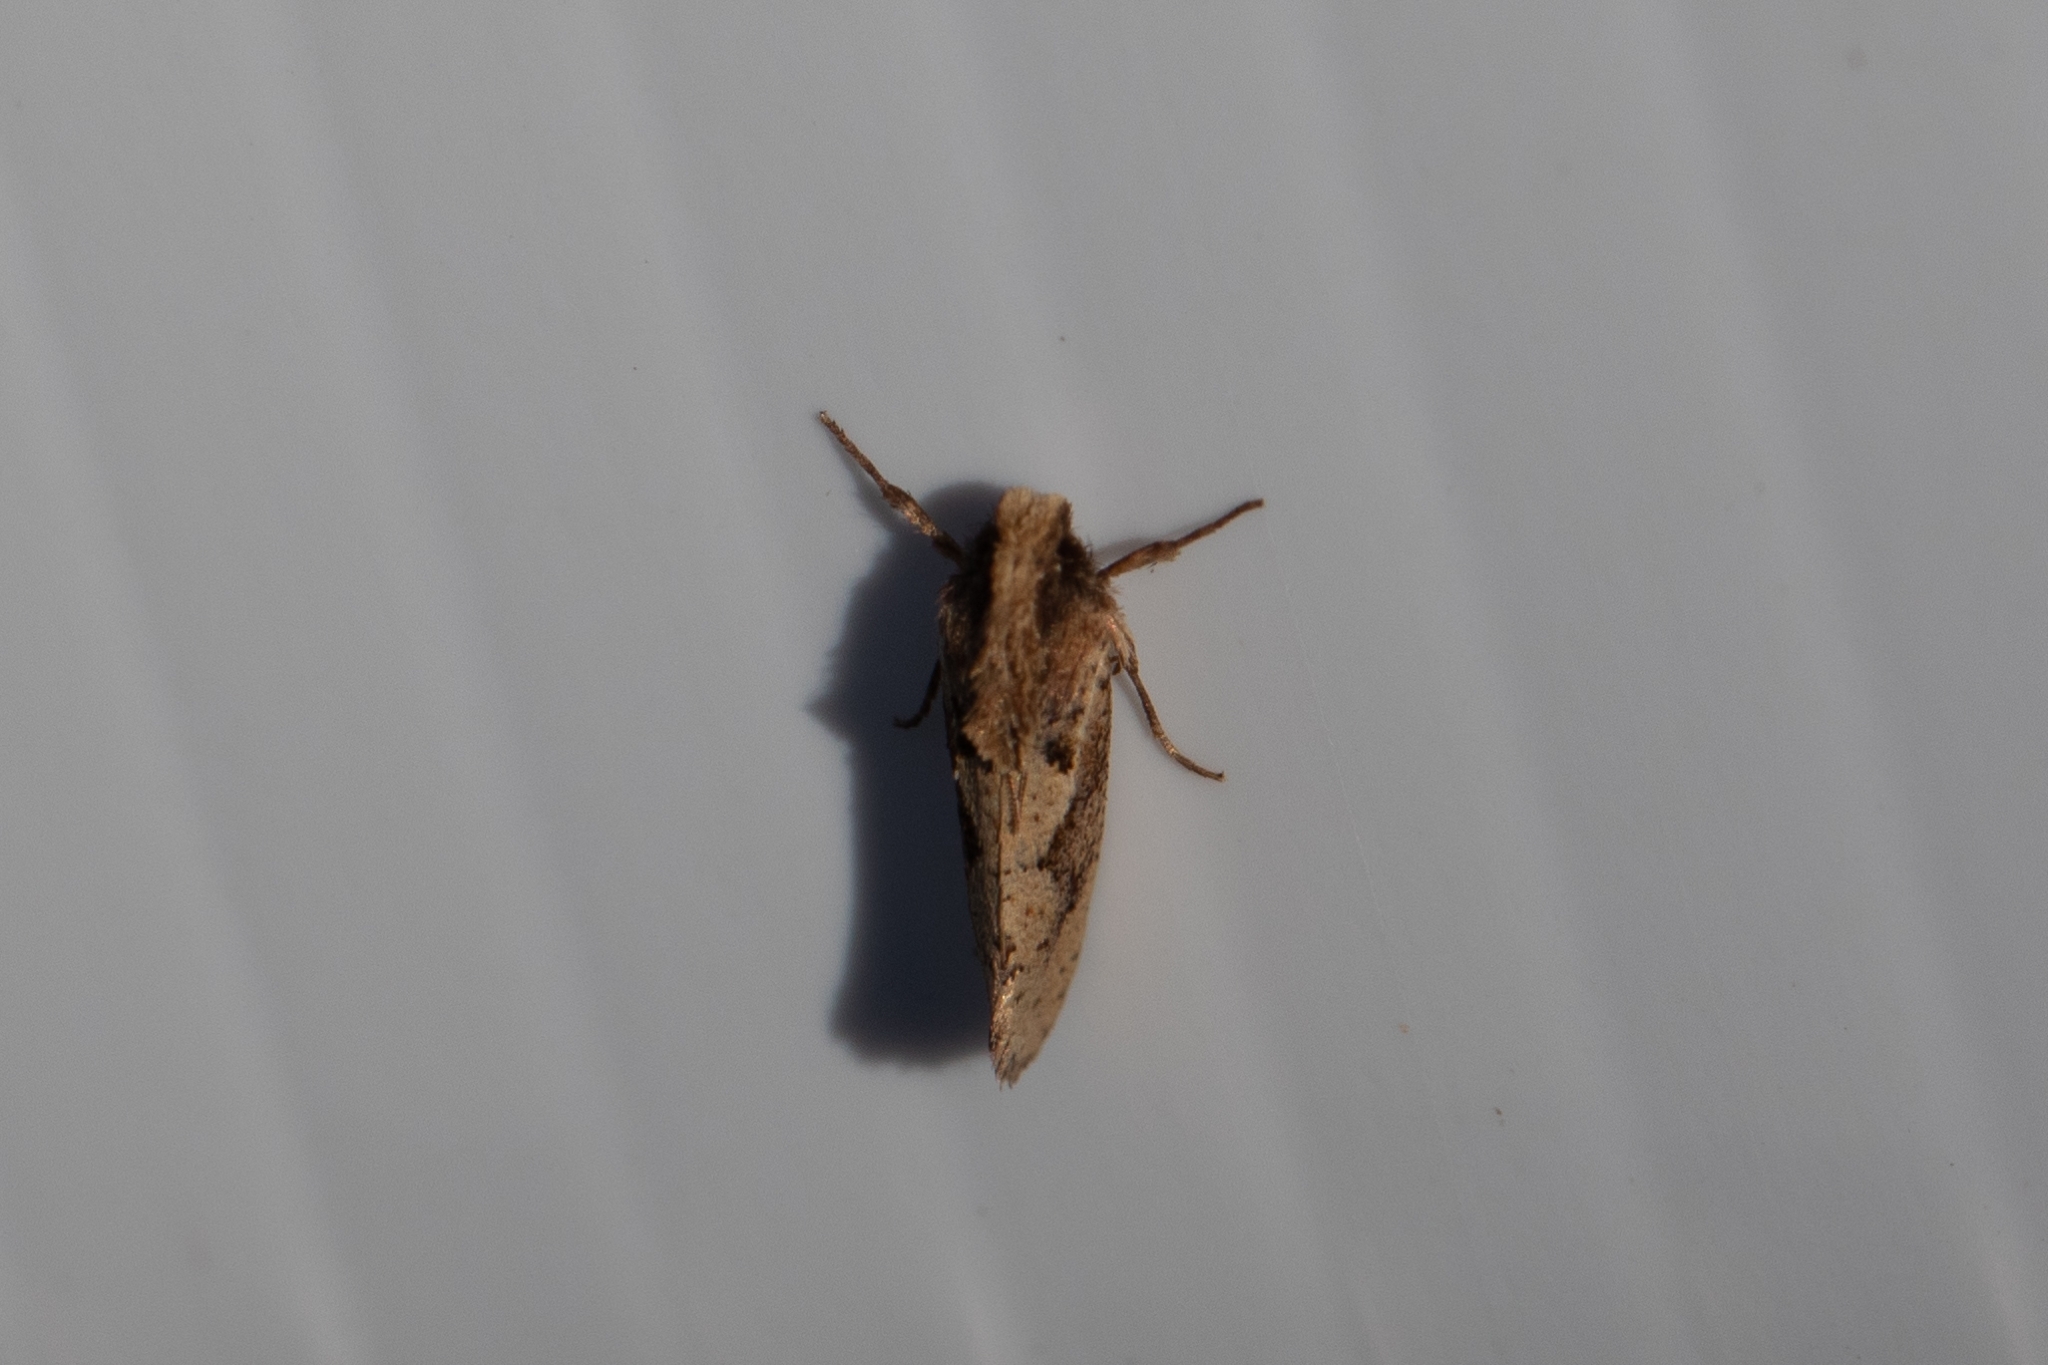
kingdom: Animalia
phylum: Arthropoda
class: Insecta
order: Lepidoptera
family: Tineidae
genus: Acrolophus
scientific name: Acrolophus walsinghami
